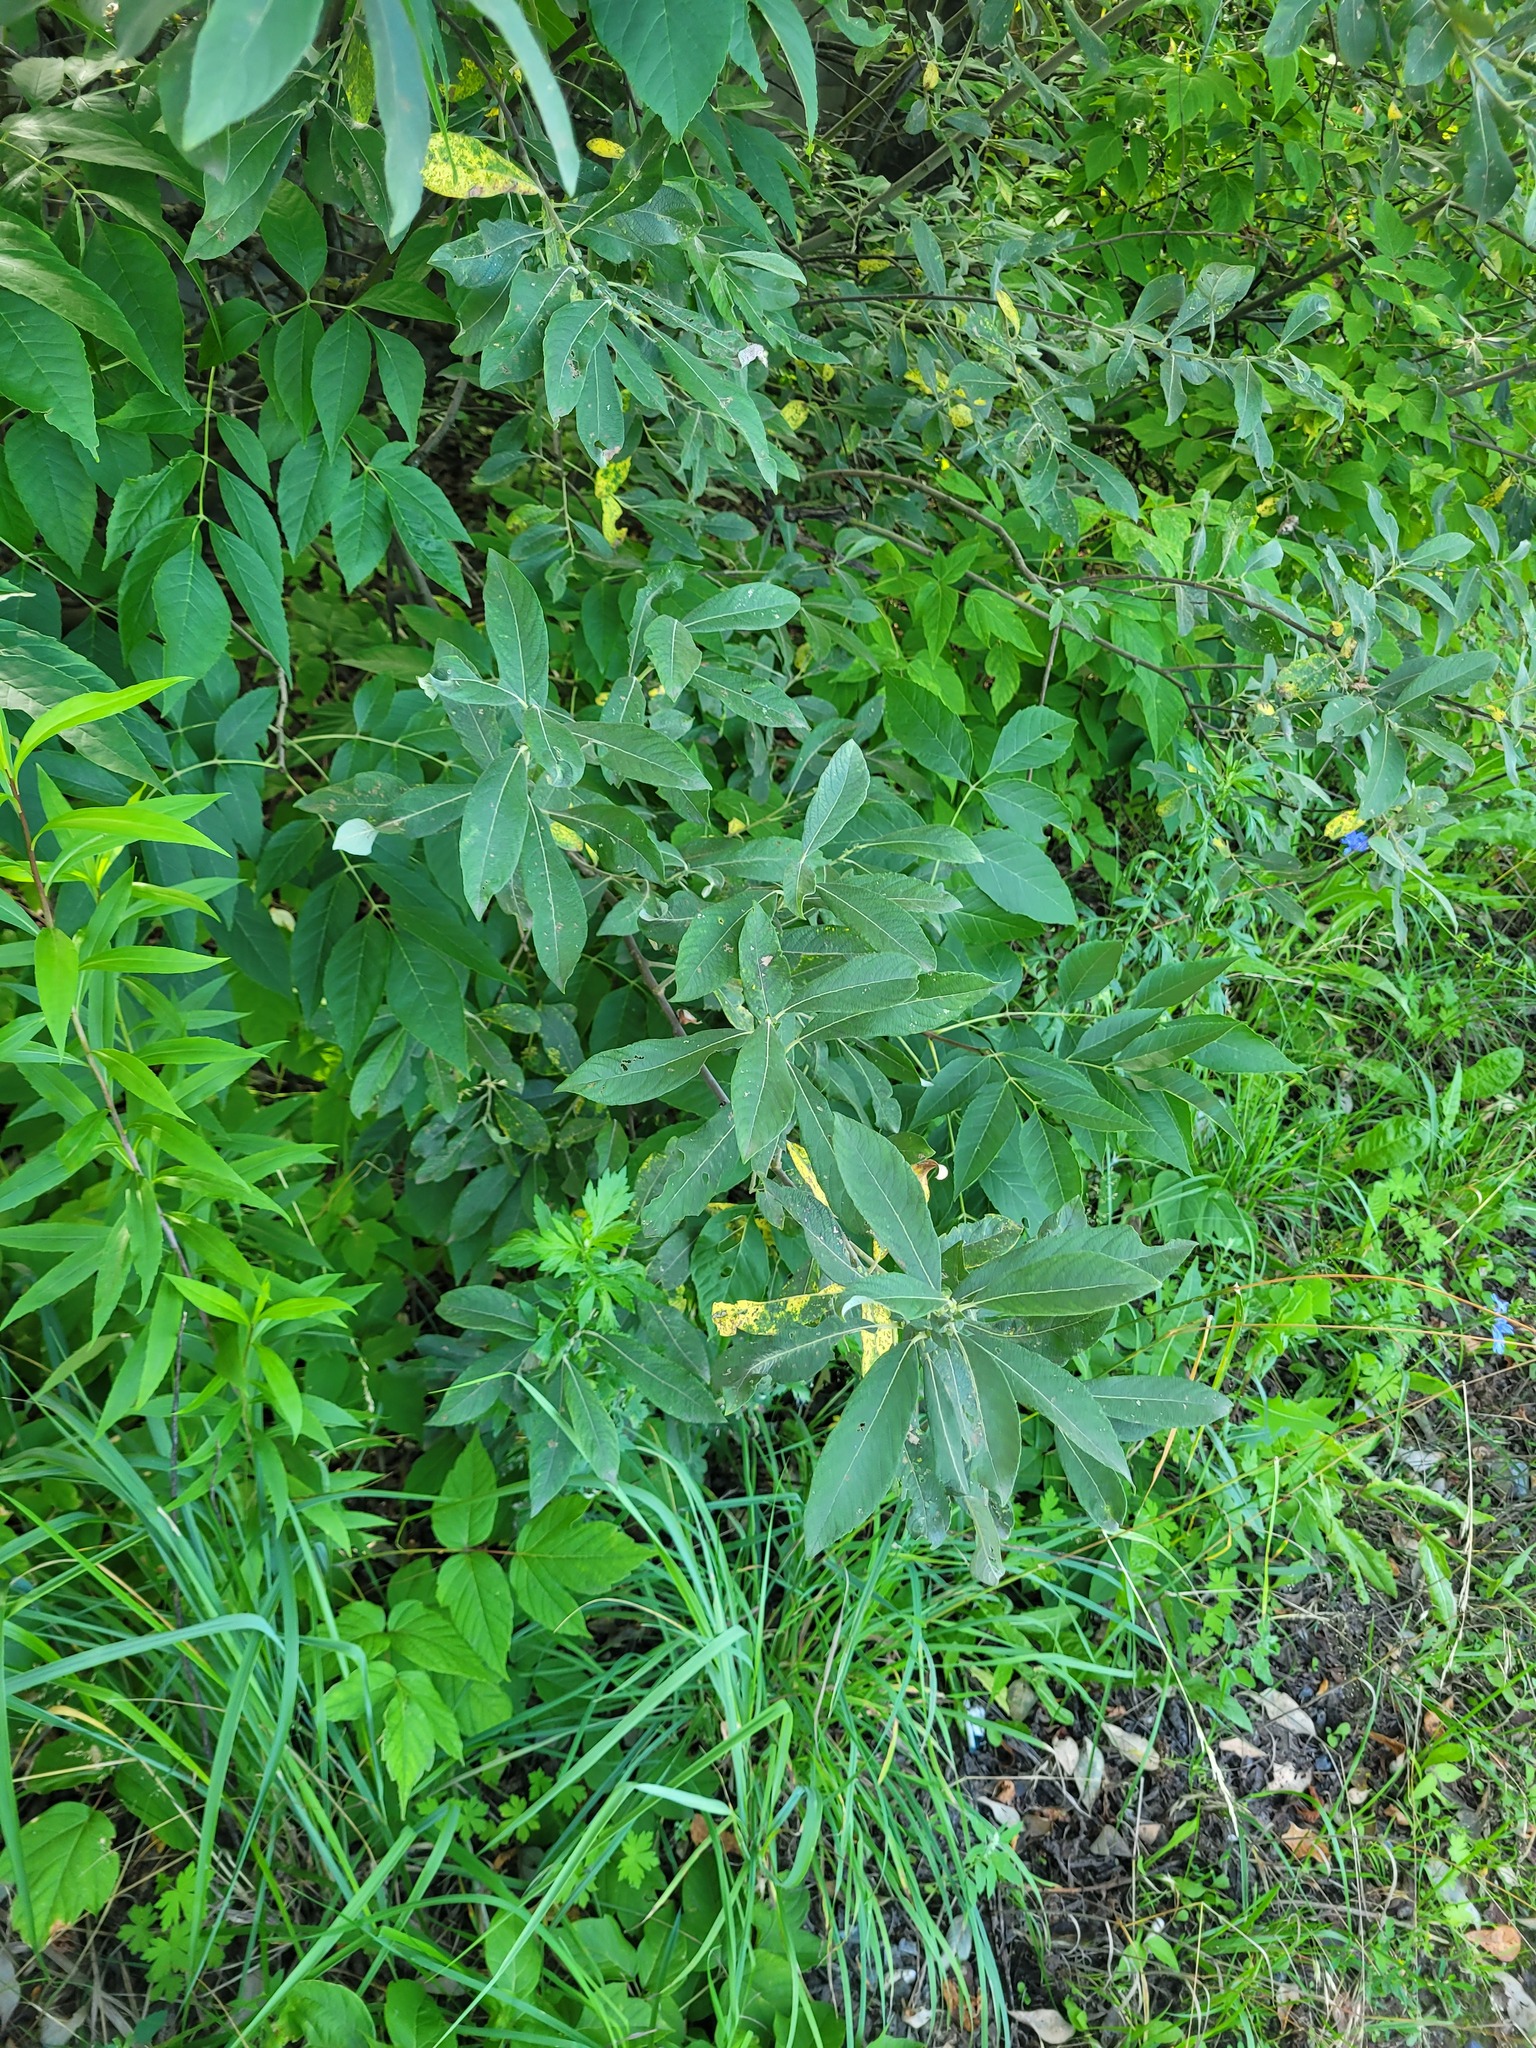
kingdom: Plantae
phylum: Tracheophyta
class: Magnoliopsida
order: Malpighiales
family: Salicaceae
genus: Salix
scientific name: Salix cinerea
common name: Common sallow
